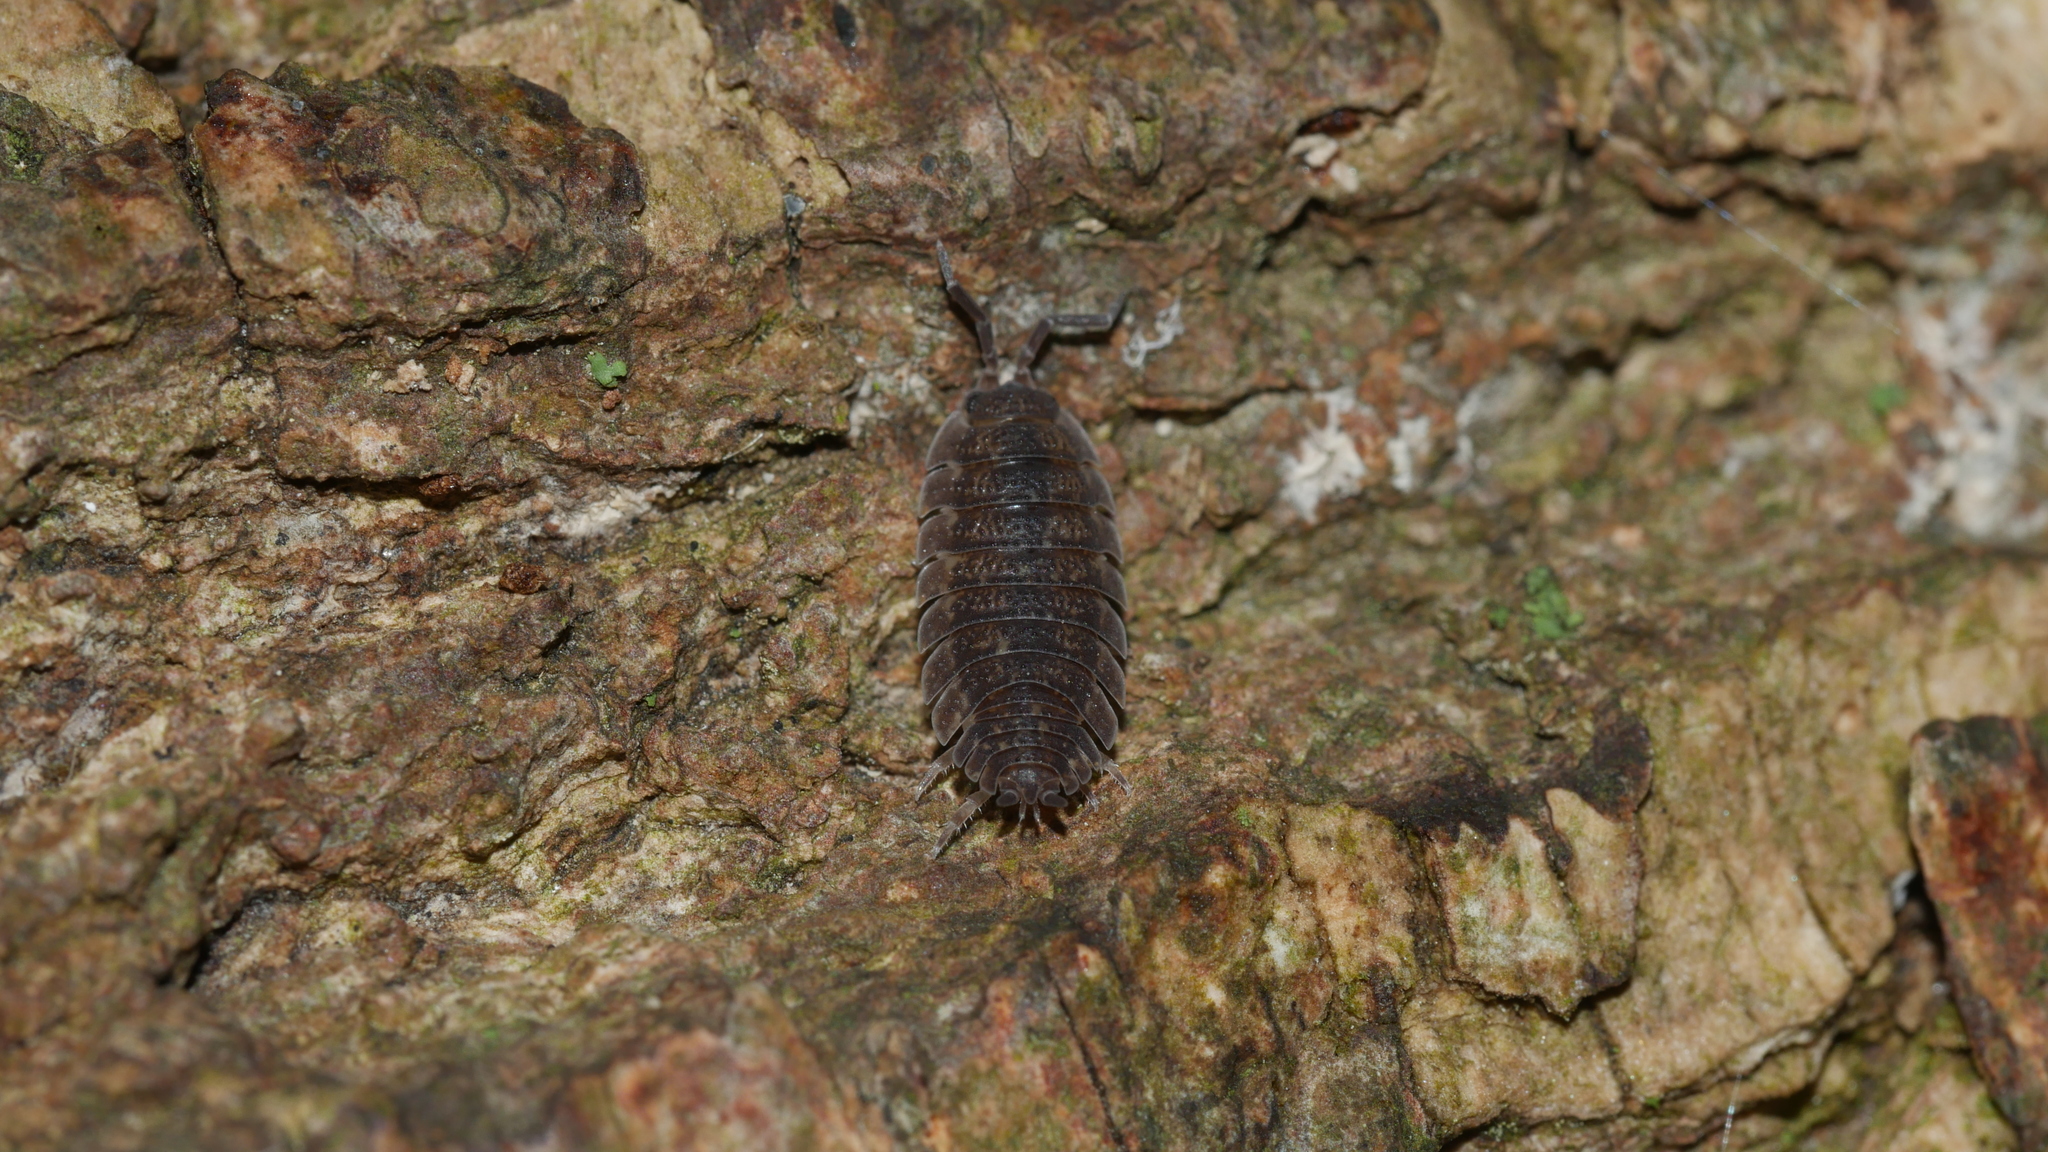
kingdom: Animalia
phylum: Arthropoda
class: Malacostraca
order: Isopoda
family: Porcellionidae
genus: Porcellio
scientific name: Porcellio scaber
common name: Common rough woodlouse
